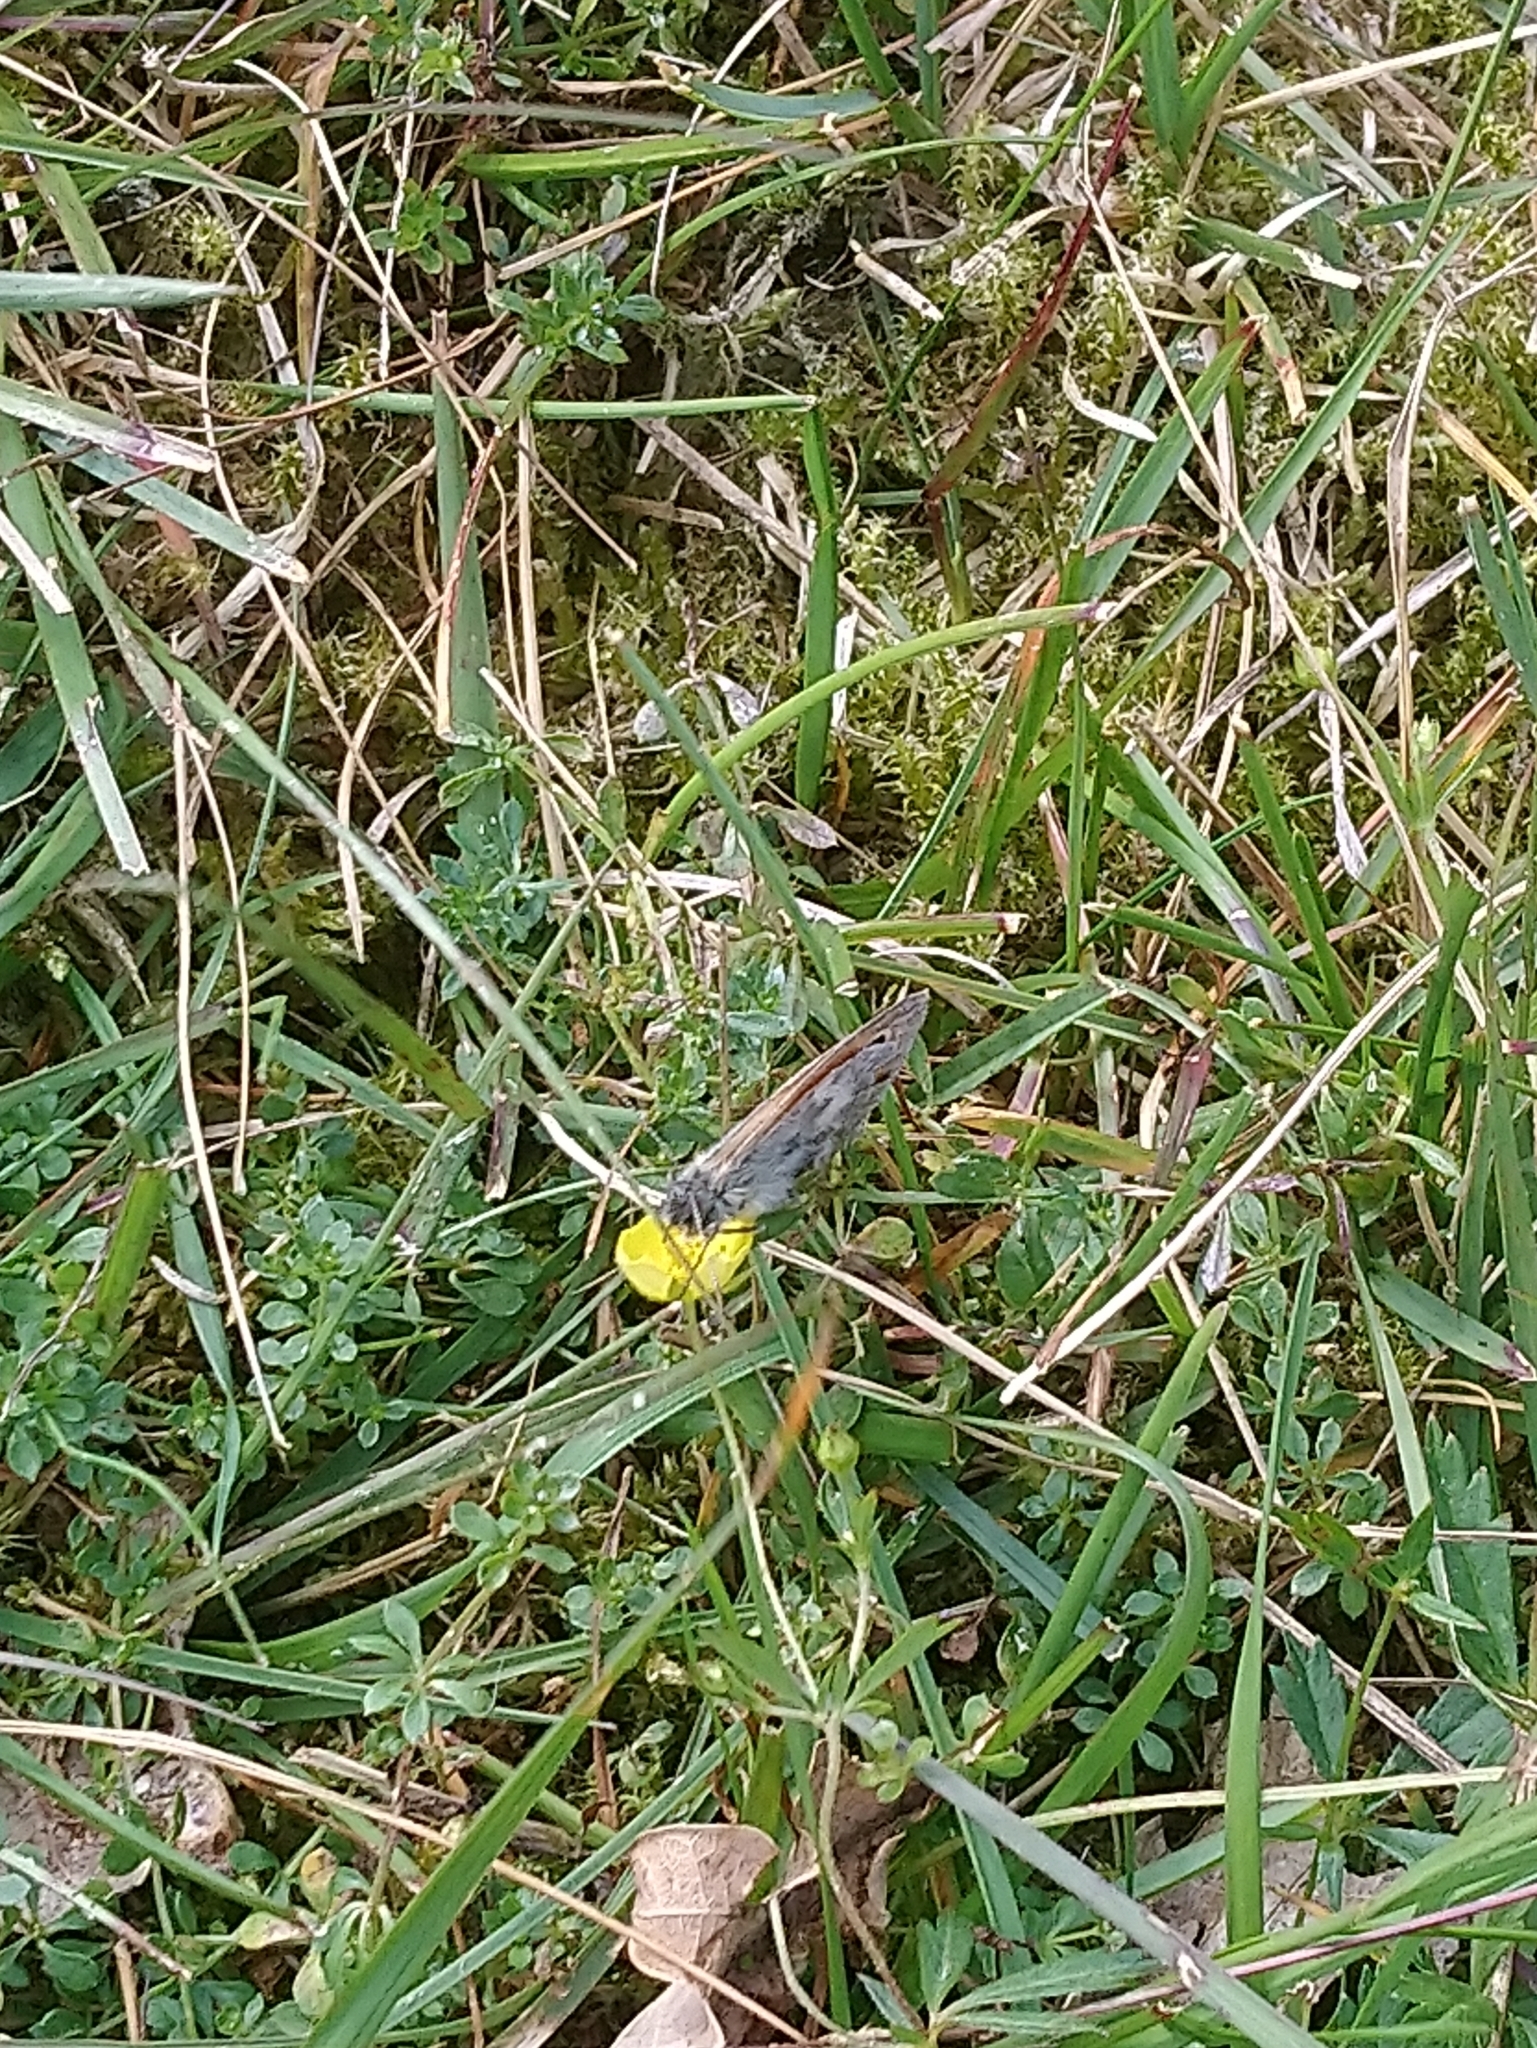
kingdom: Animalia
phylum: Arthropoda
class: Insecta
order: Lepidoptera
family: Nymphalidae
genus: Coenonympha
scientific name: Coenonympha pamphilus
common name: Small heath
